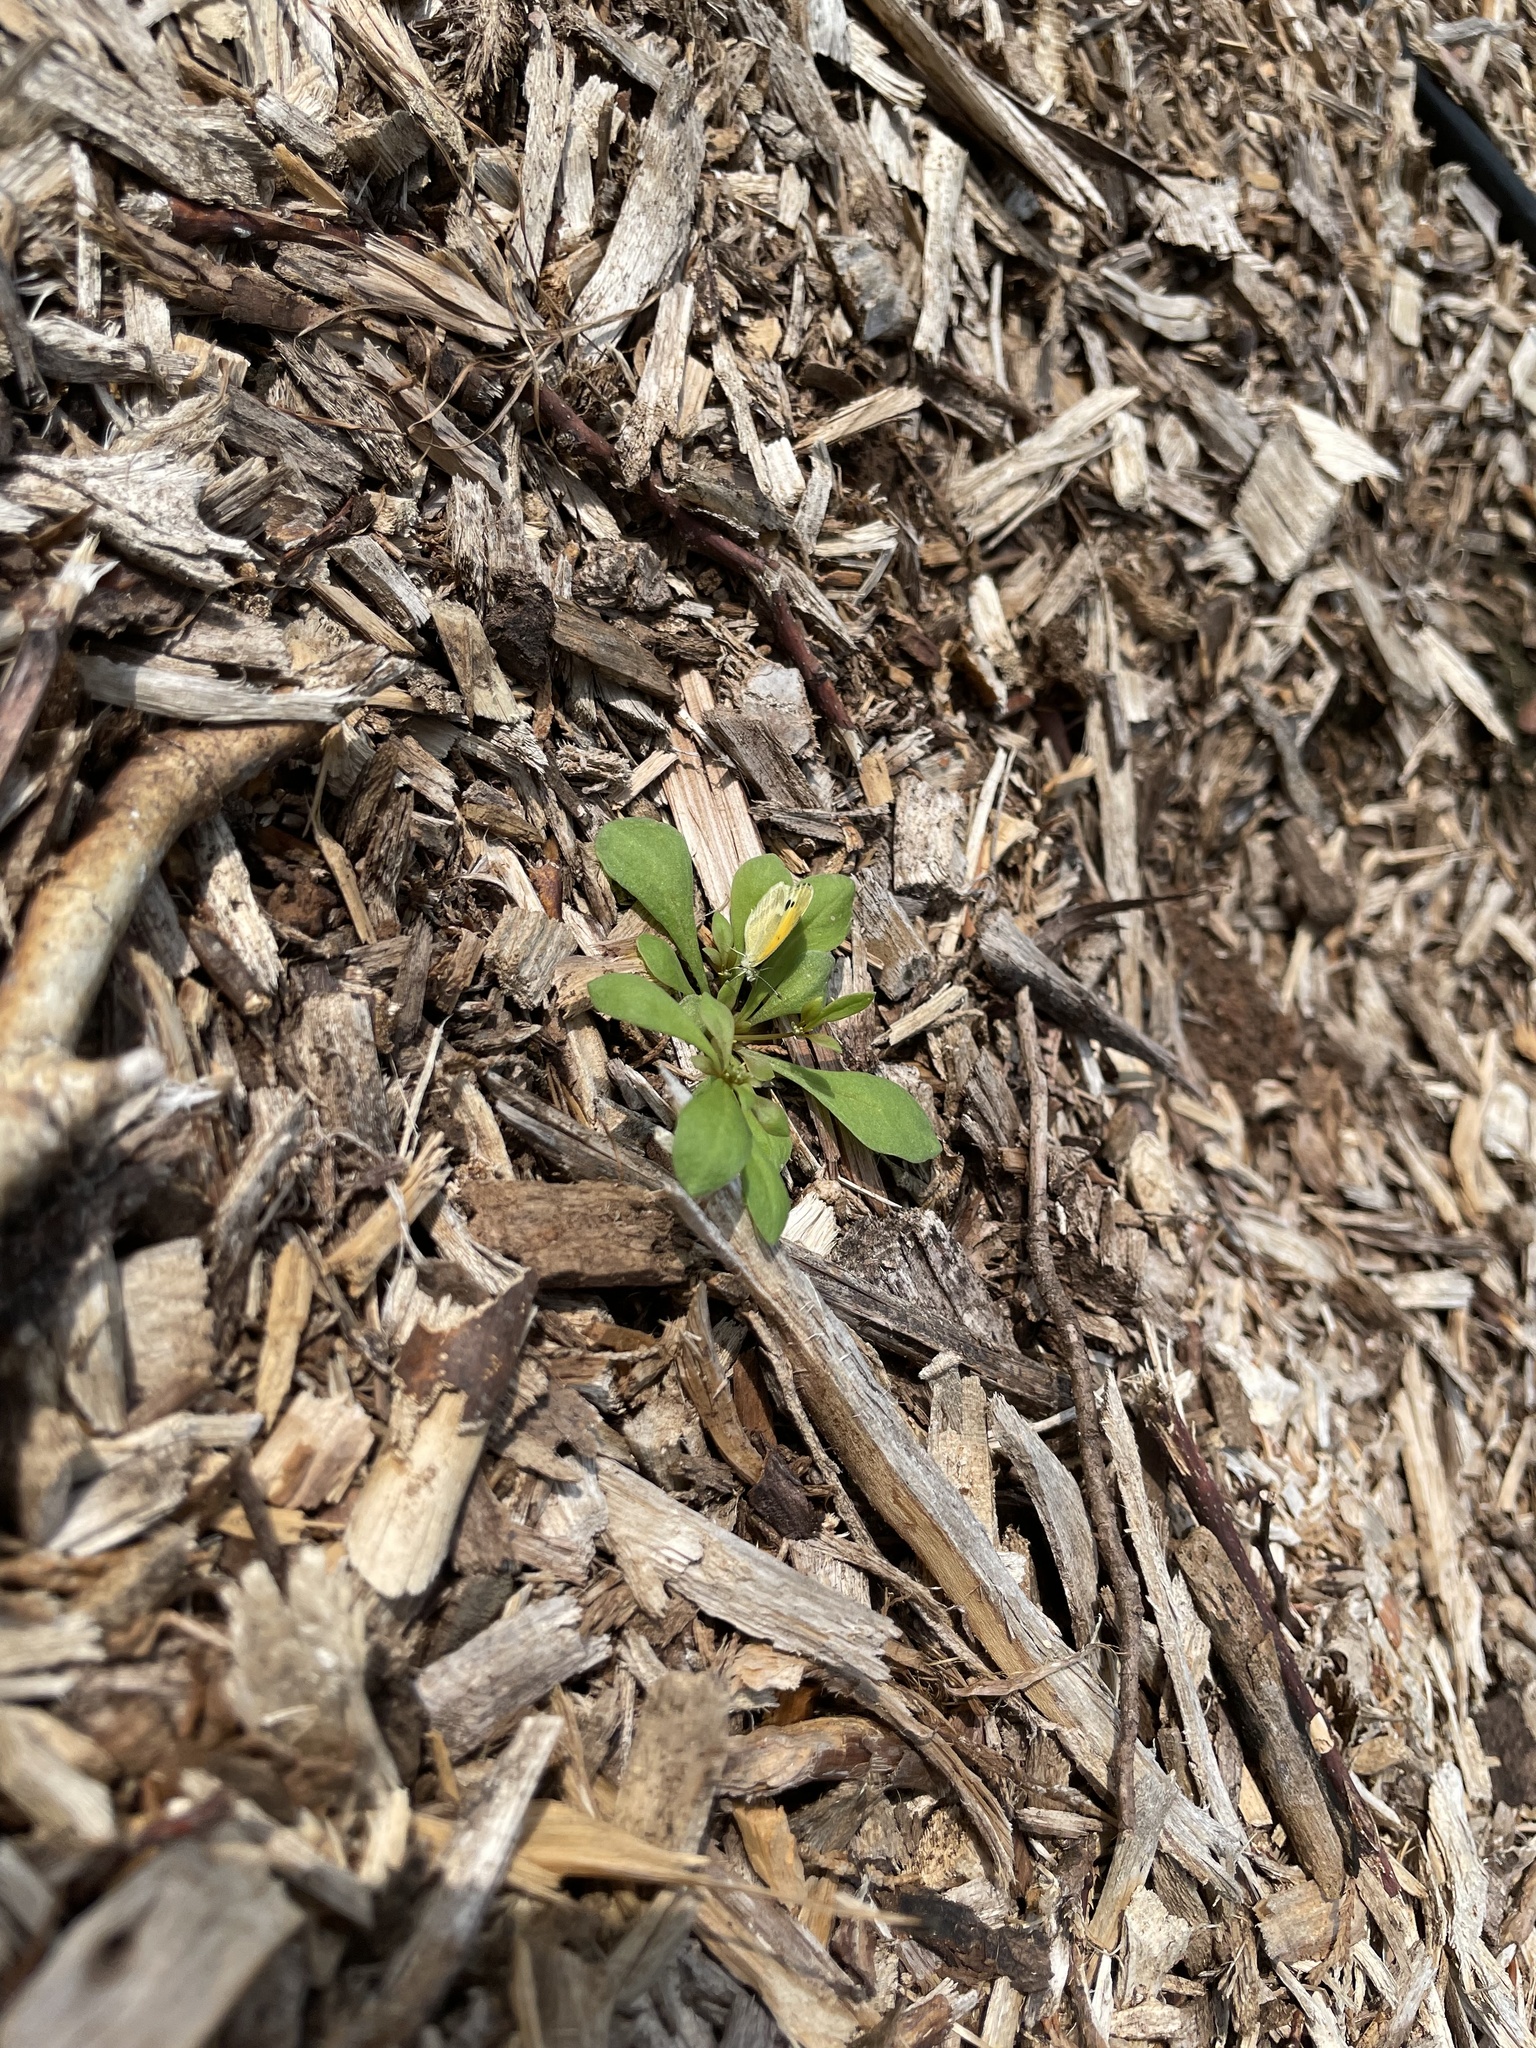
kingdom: Animalia
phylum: Arthropoda
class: Insecta
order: Lepidoptera
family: Pieridae
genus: Nathalis
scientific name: Nathalis iole
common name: Dainty sulphur
